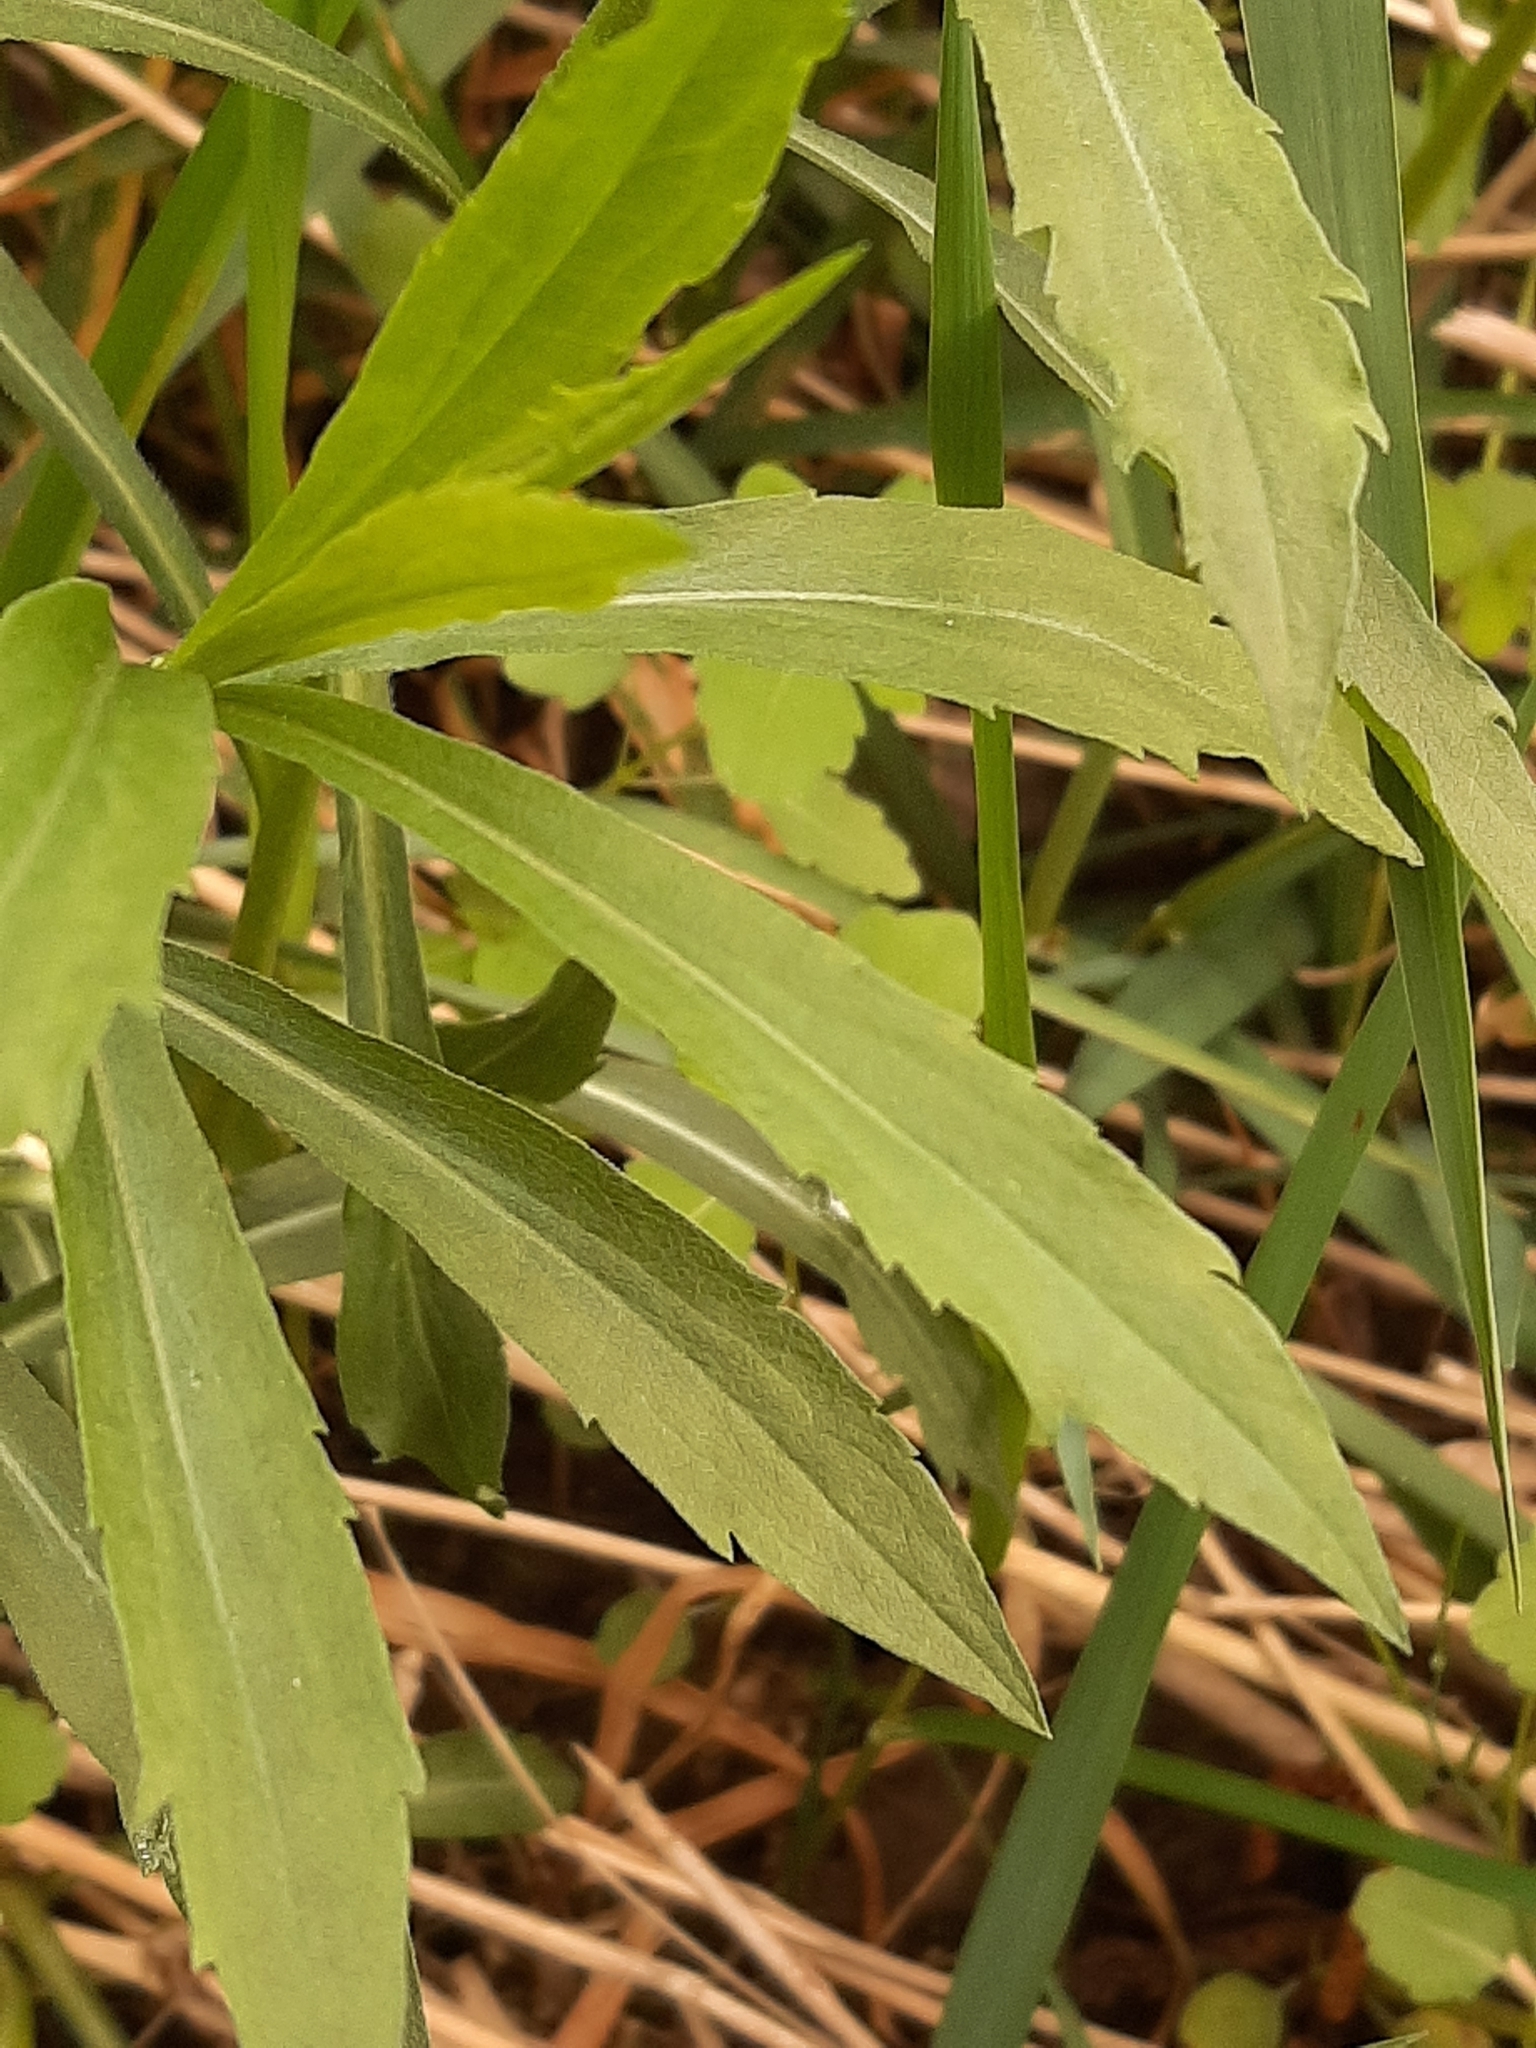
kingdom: Plantae
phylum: Tracheophyta
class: Magnoliopsida
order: Asterales
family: Asteraceae
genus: Solidago
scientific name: Solidago canadensis
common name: Canada goldenrod
